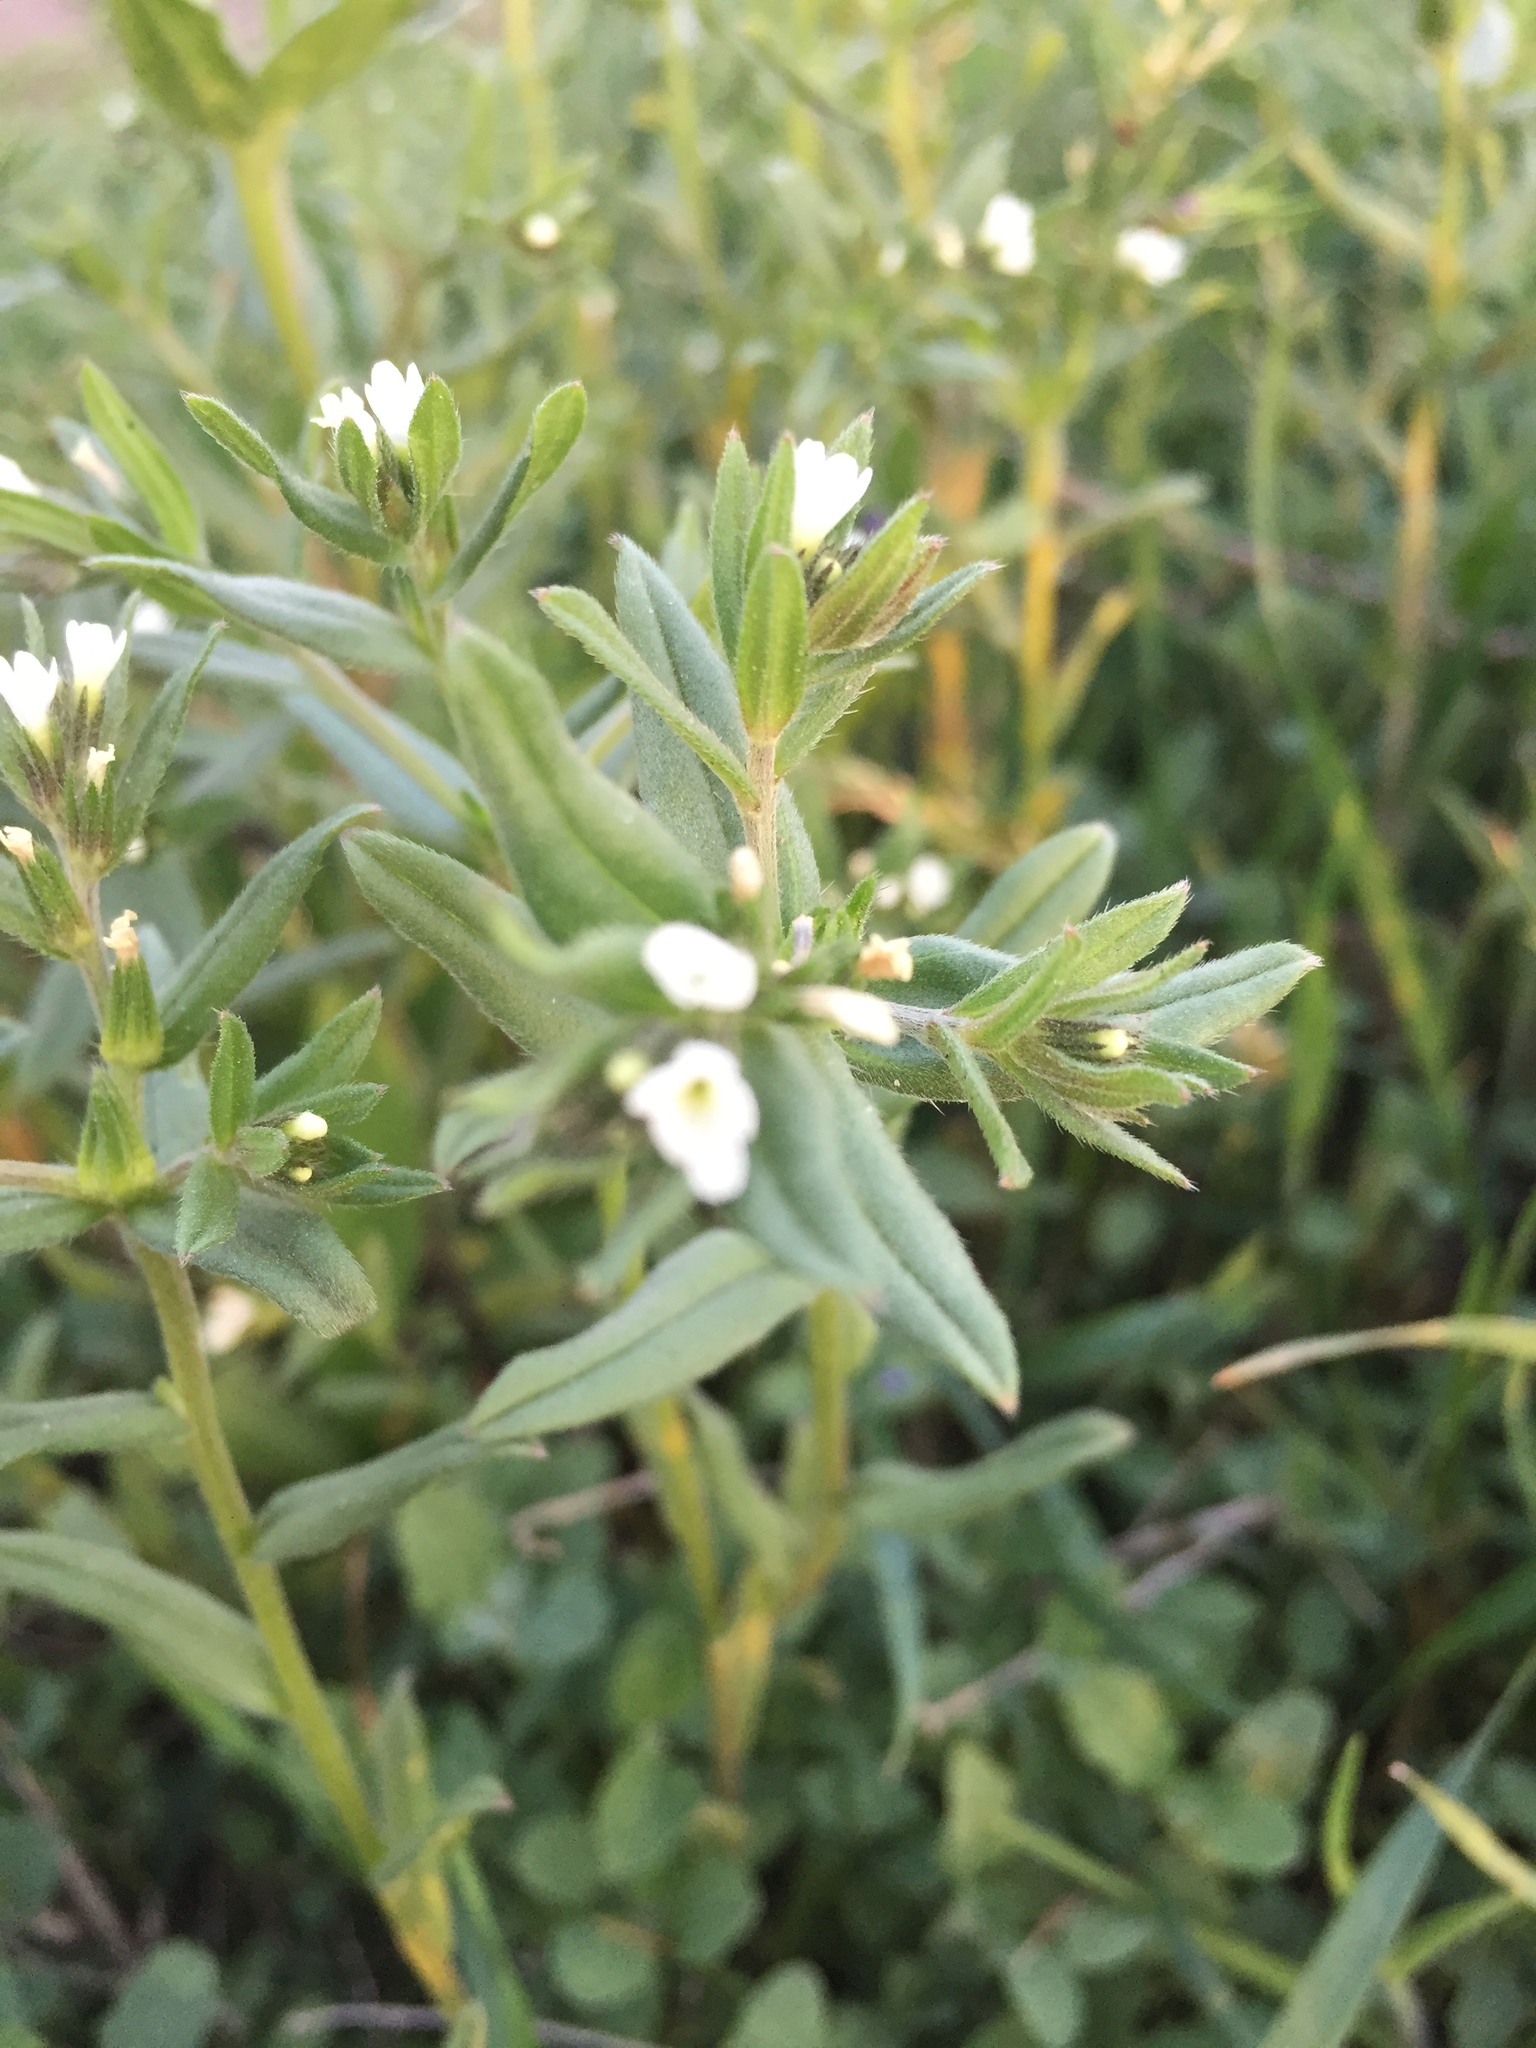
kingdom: Plantae
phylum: Tracheophyta
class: Magnoliopsida
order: Boraginales
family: Boraginaceae
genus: Buglossoides
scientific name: Buglossoides arvensis
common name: Corn gromwell
